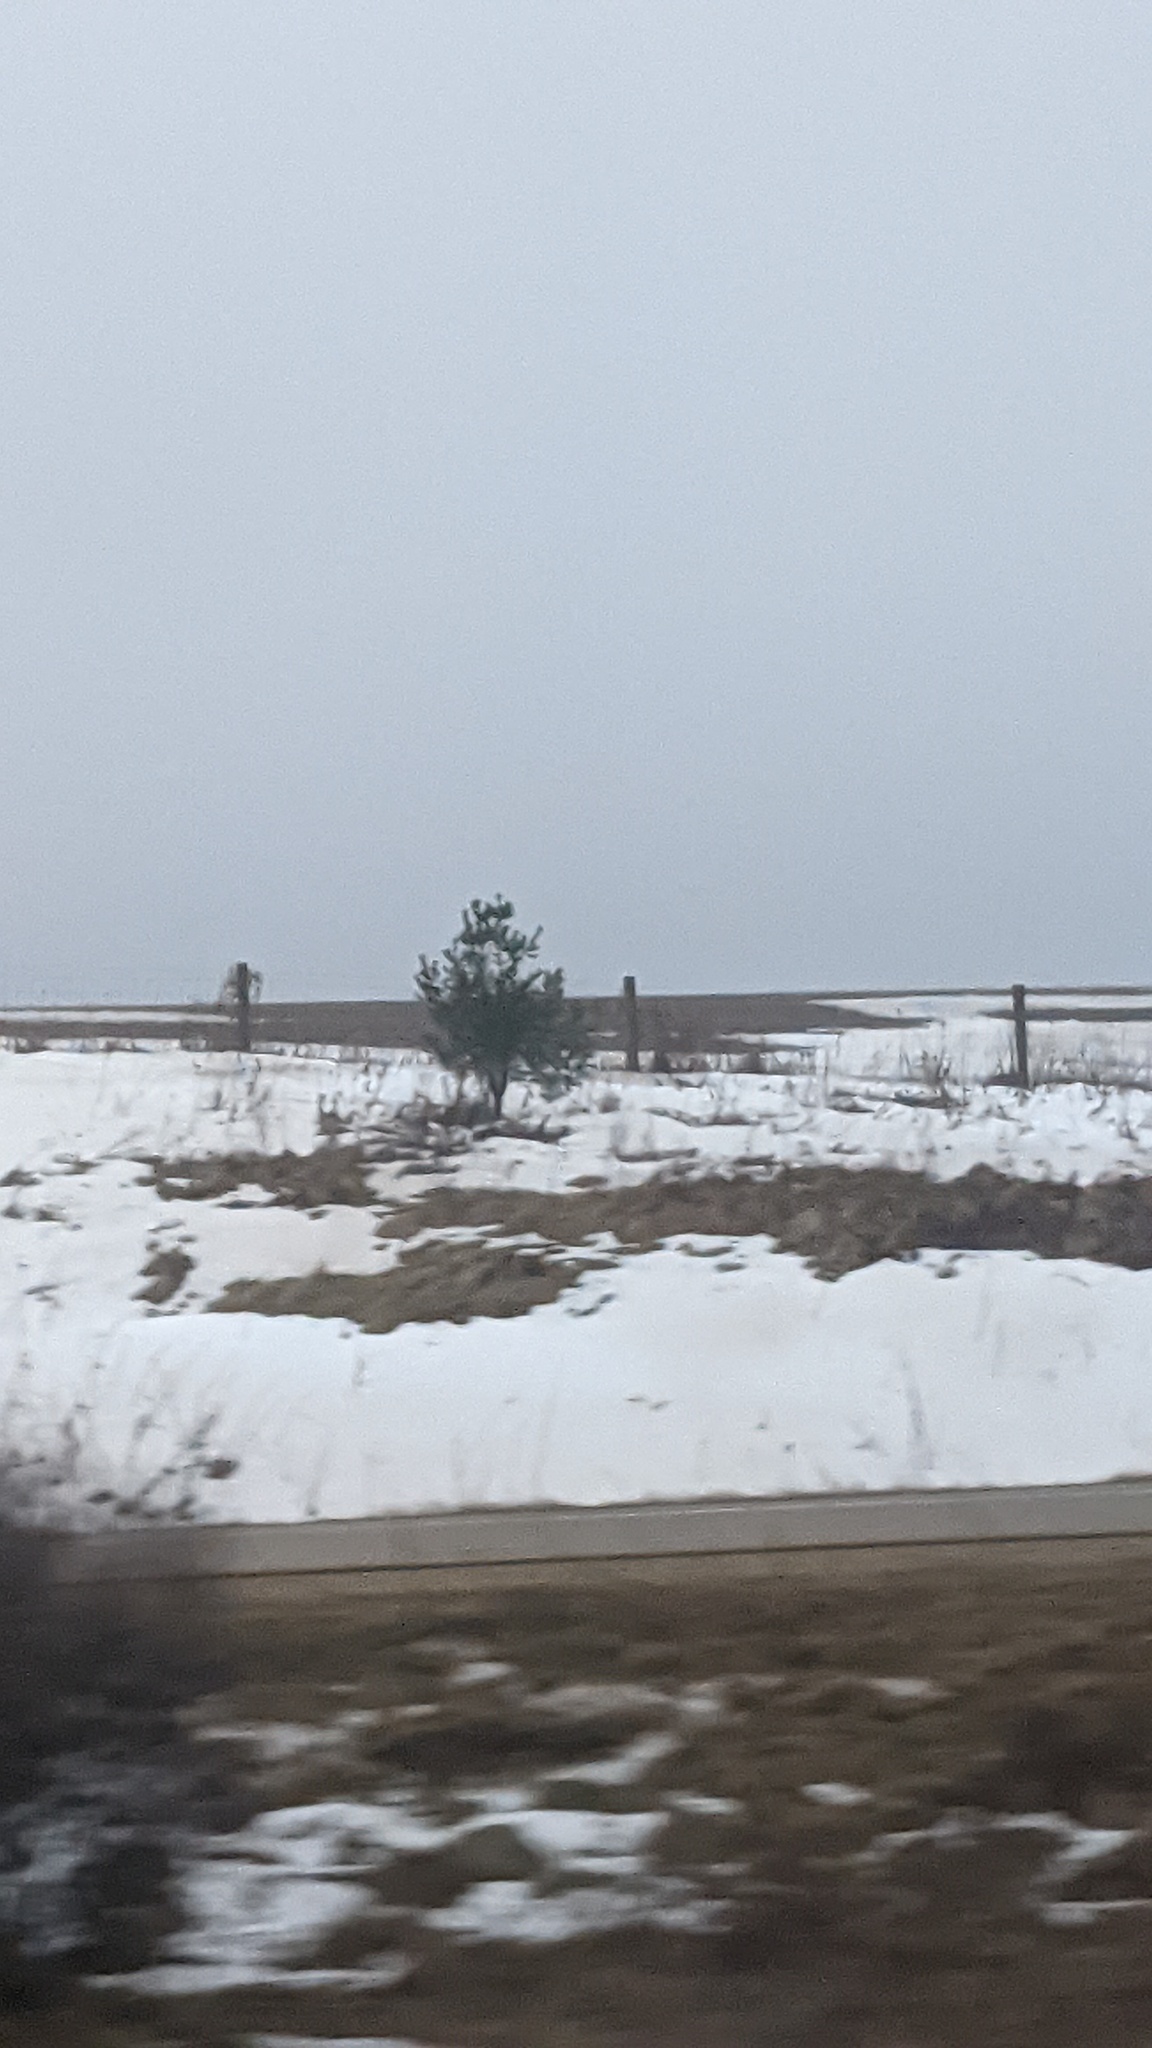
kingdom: Plantae
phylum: Tracheophyta
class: Pinopsida
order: Pinales
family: Pinaceae
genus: Pinus
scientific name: Pinus strobus
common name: Weymouth pine
